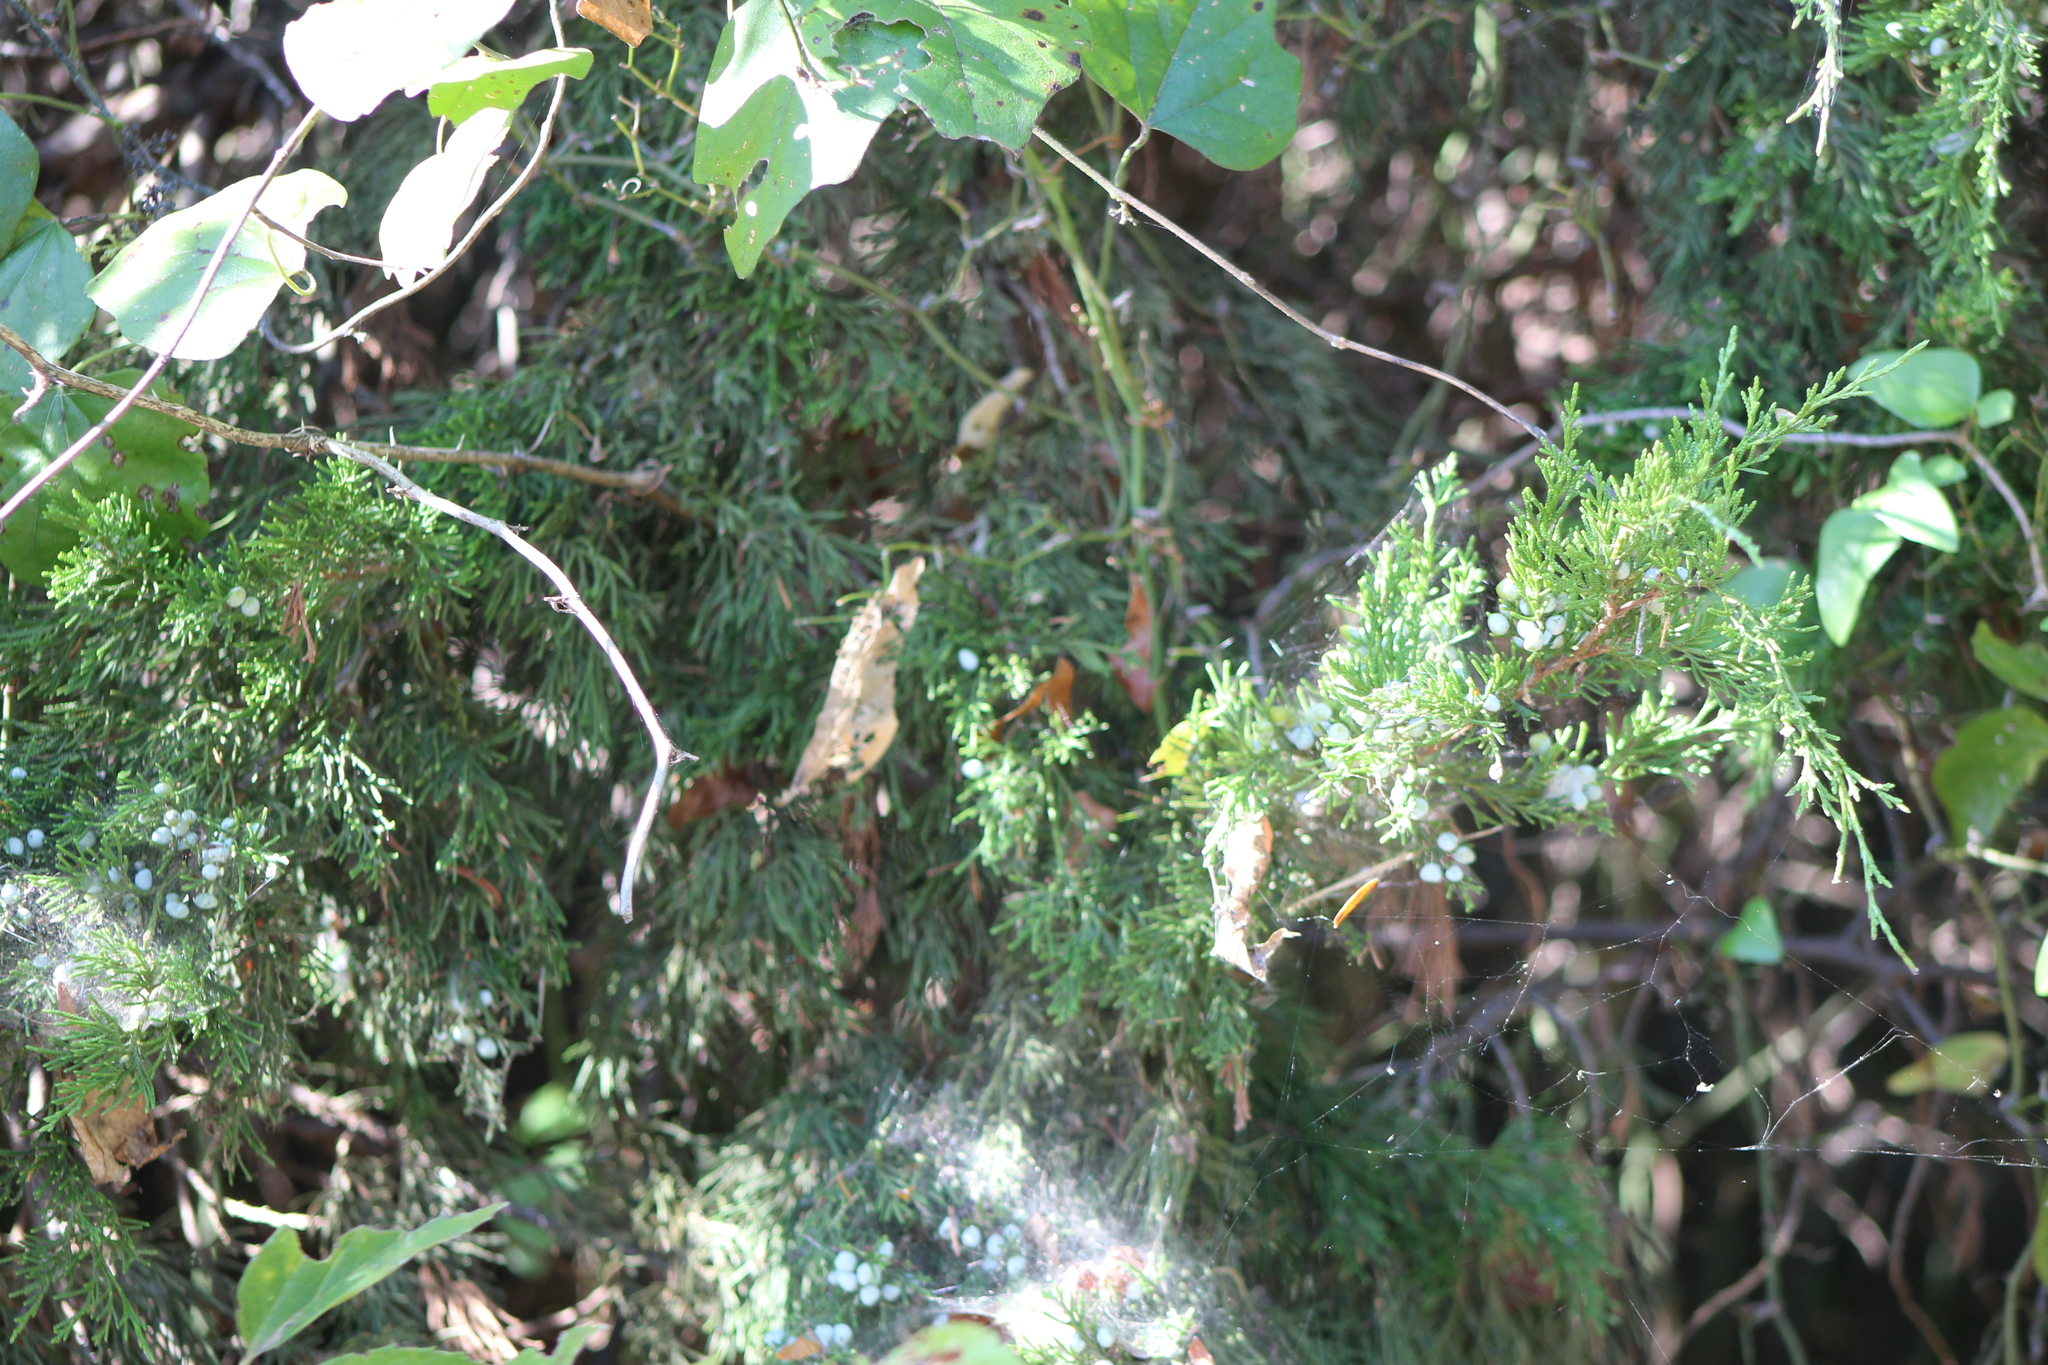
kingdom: Plantae
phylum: Tracheophyta
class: Pinopsida
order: Pinales
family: Cupressaceae
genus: Juniperus
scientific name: Juniperus virginiana
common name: Red juniper
